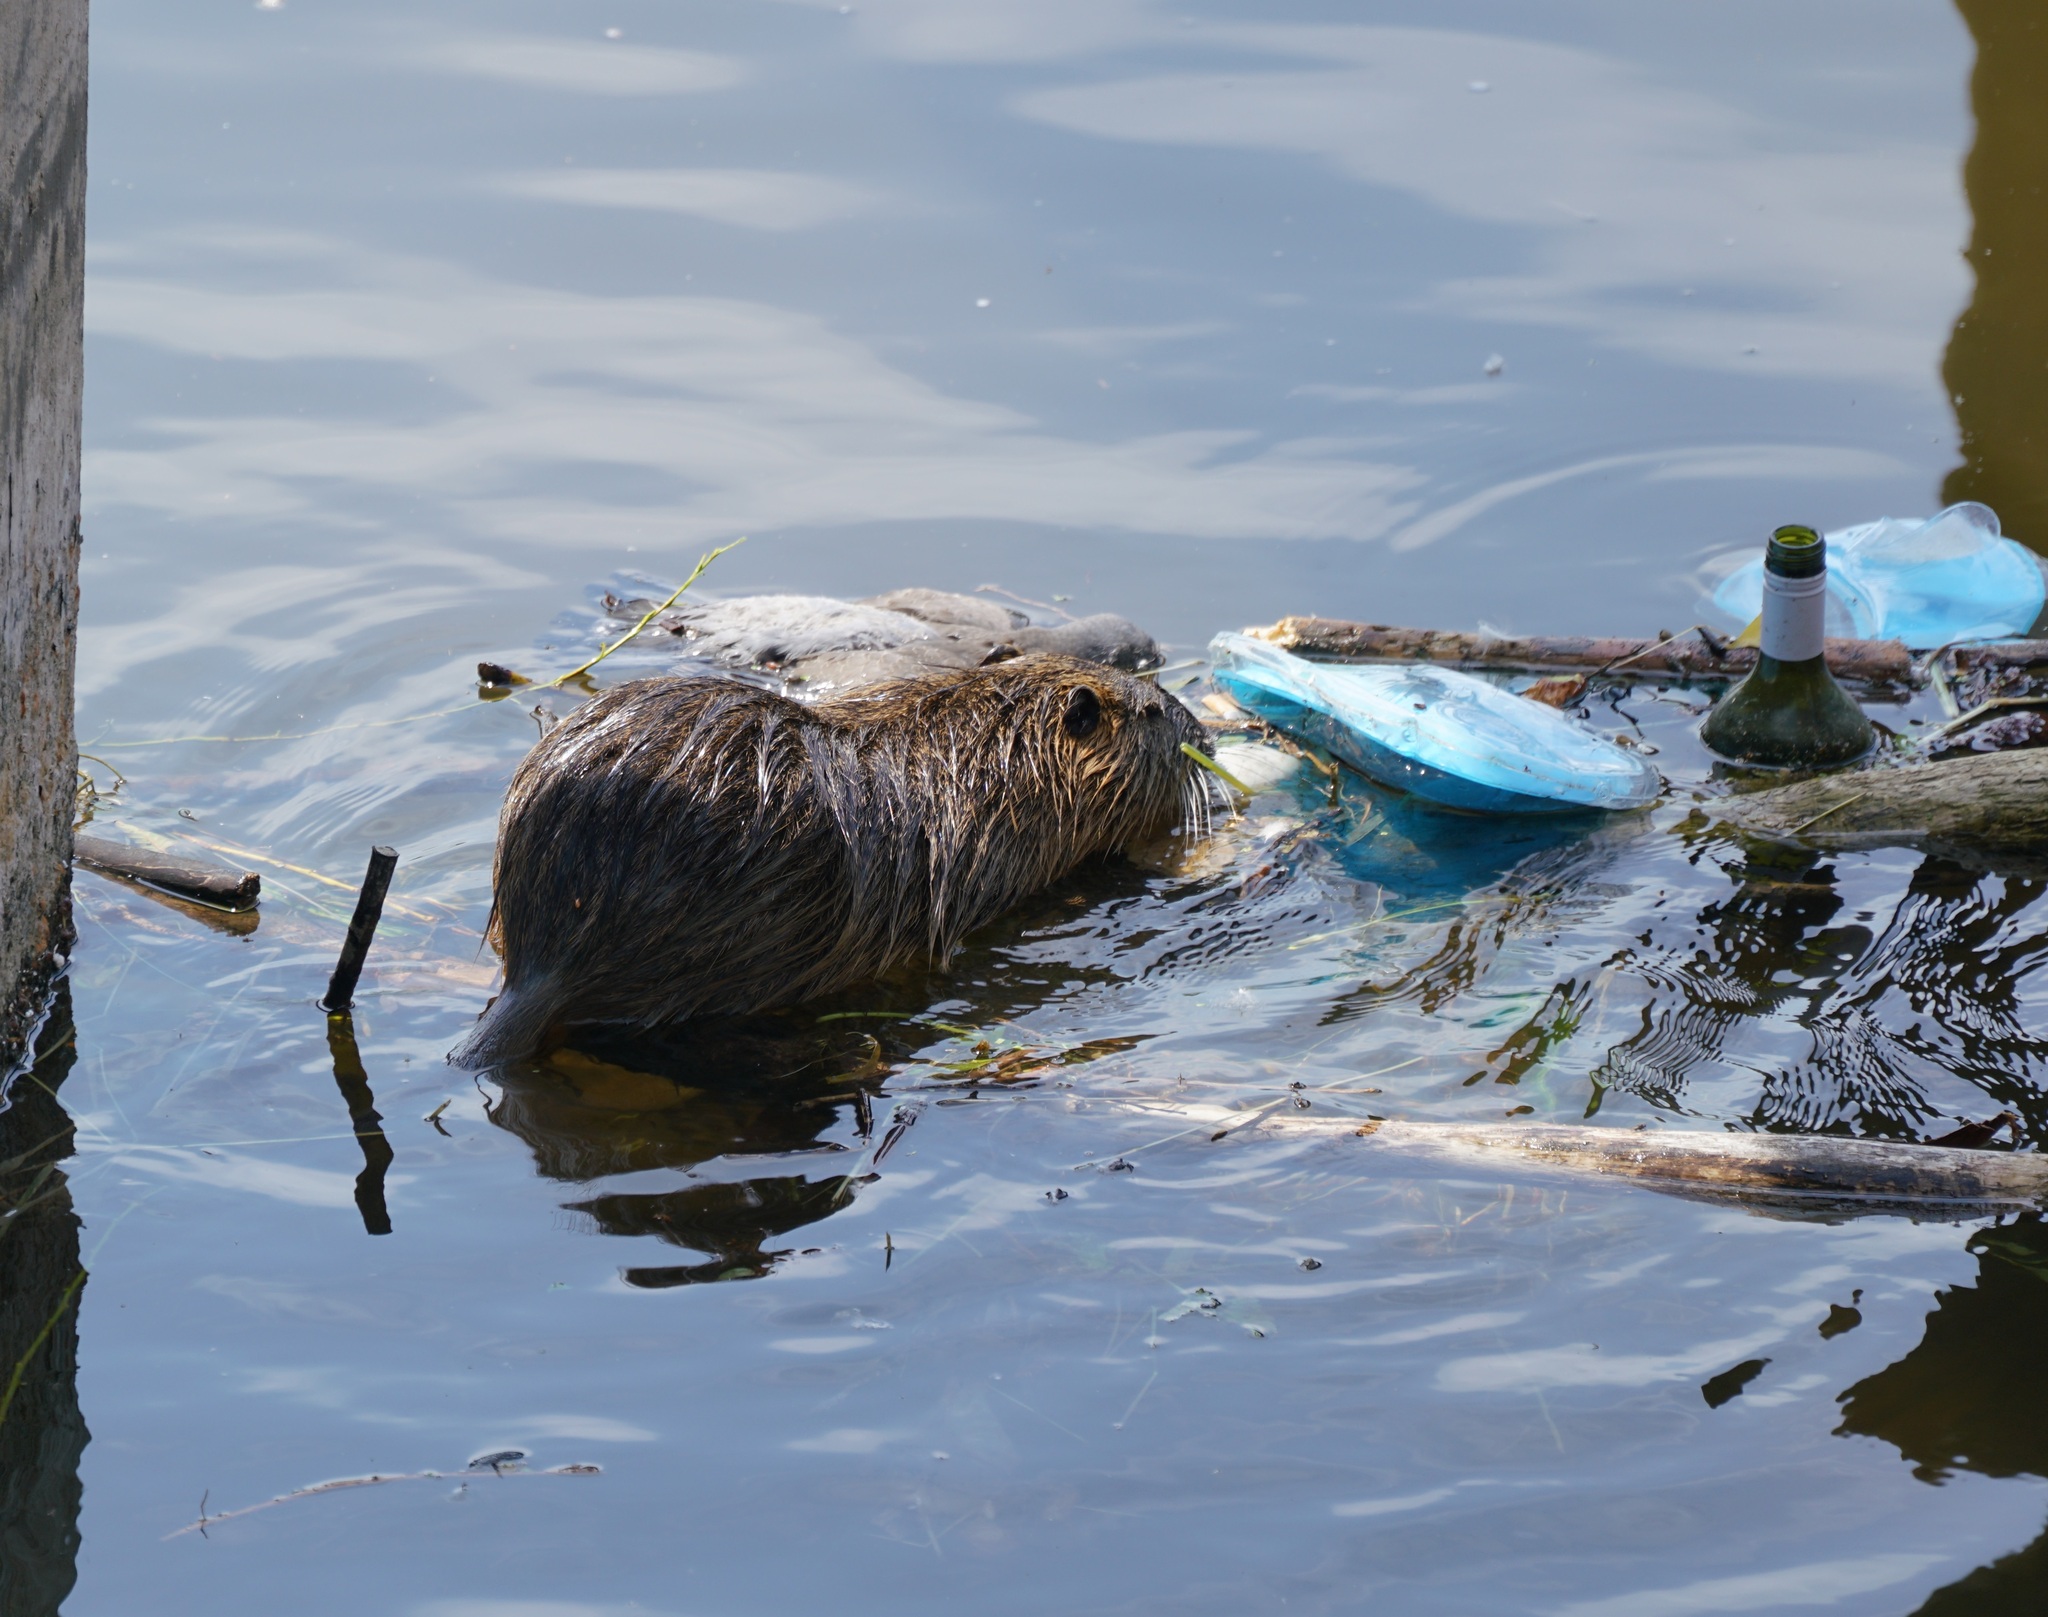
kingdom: Animalia
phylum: Chordata
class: Mammalia
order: Rodentia
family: Myocastoridae
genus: Myocastor
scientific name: Myocastor coypus
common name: Coypu
